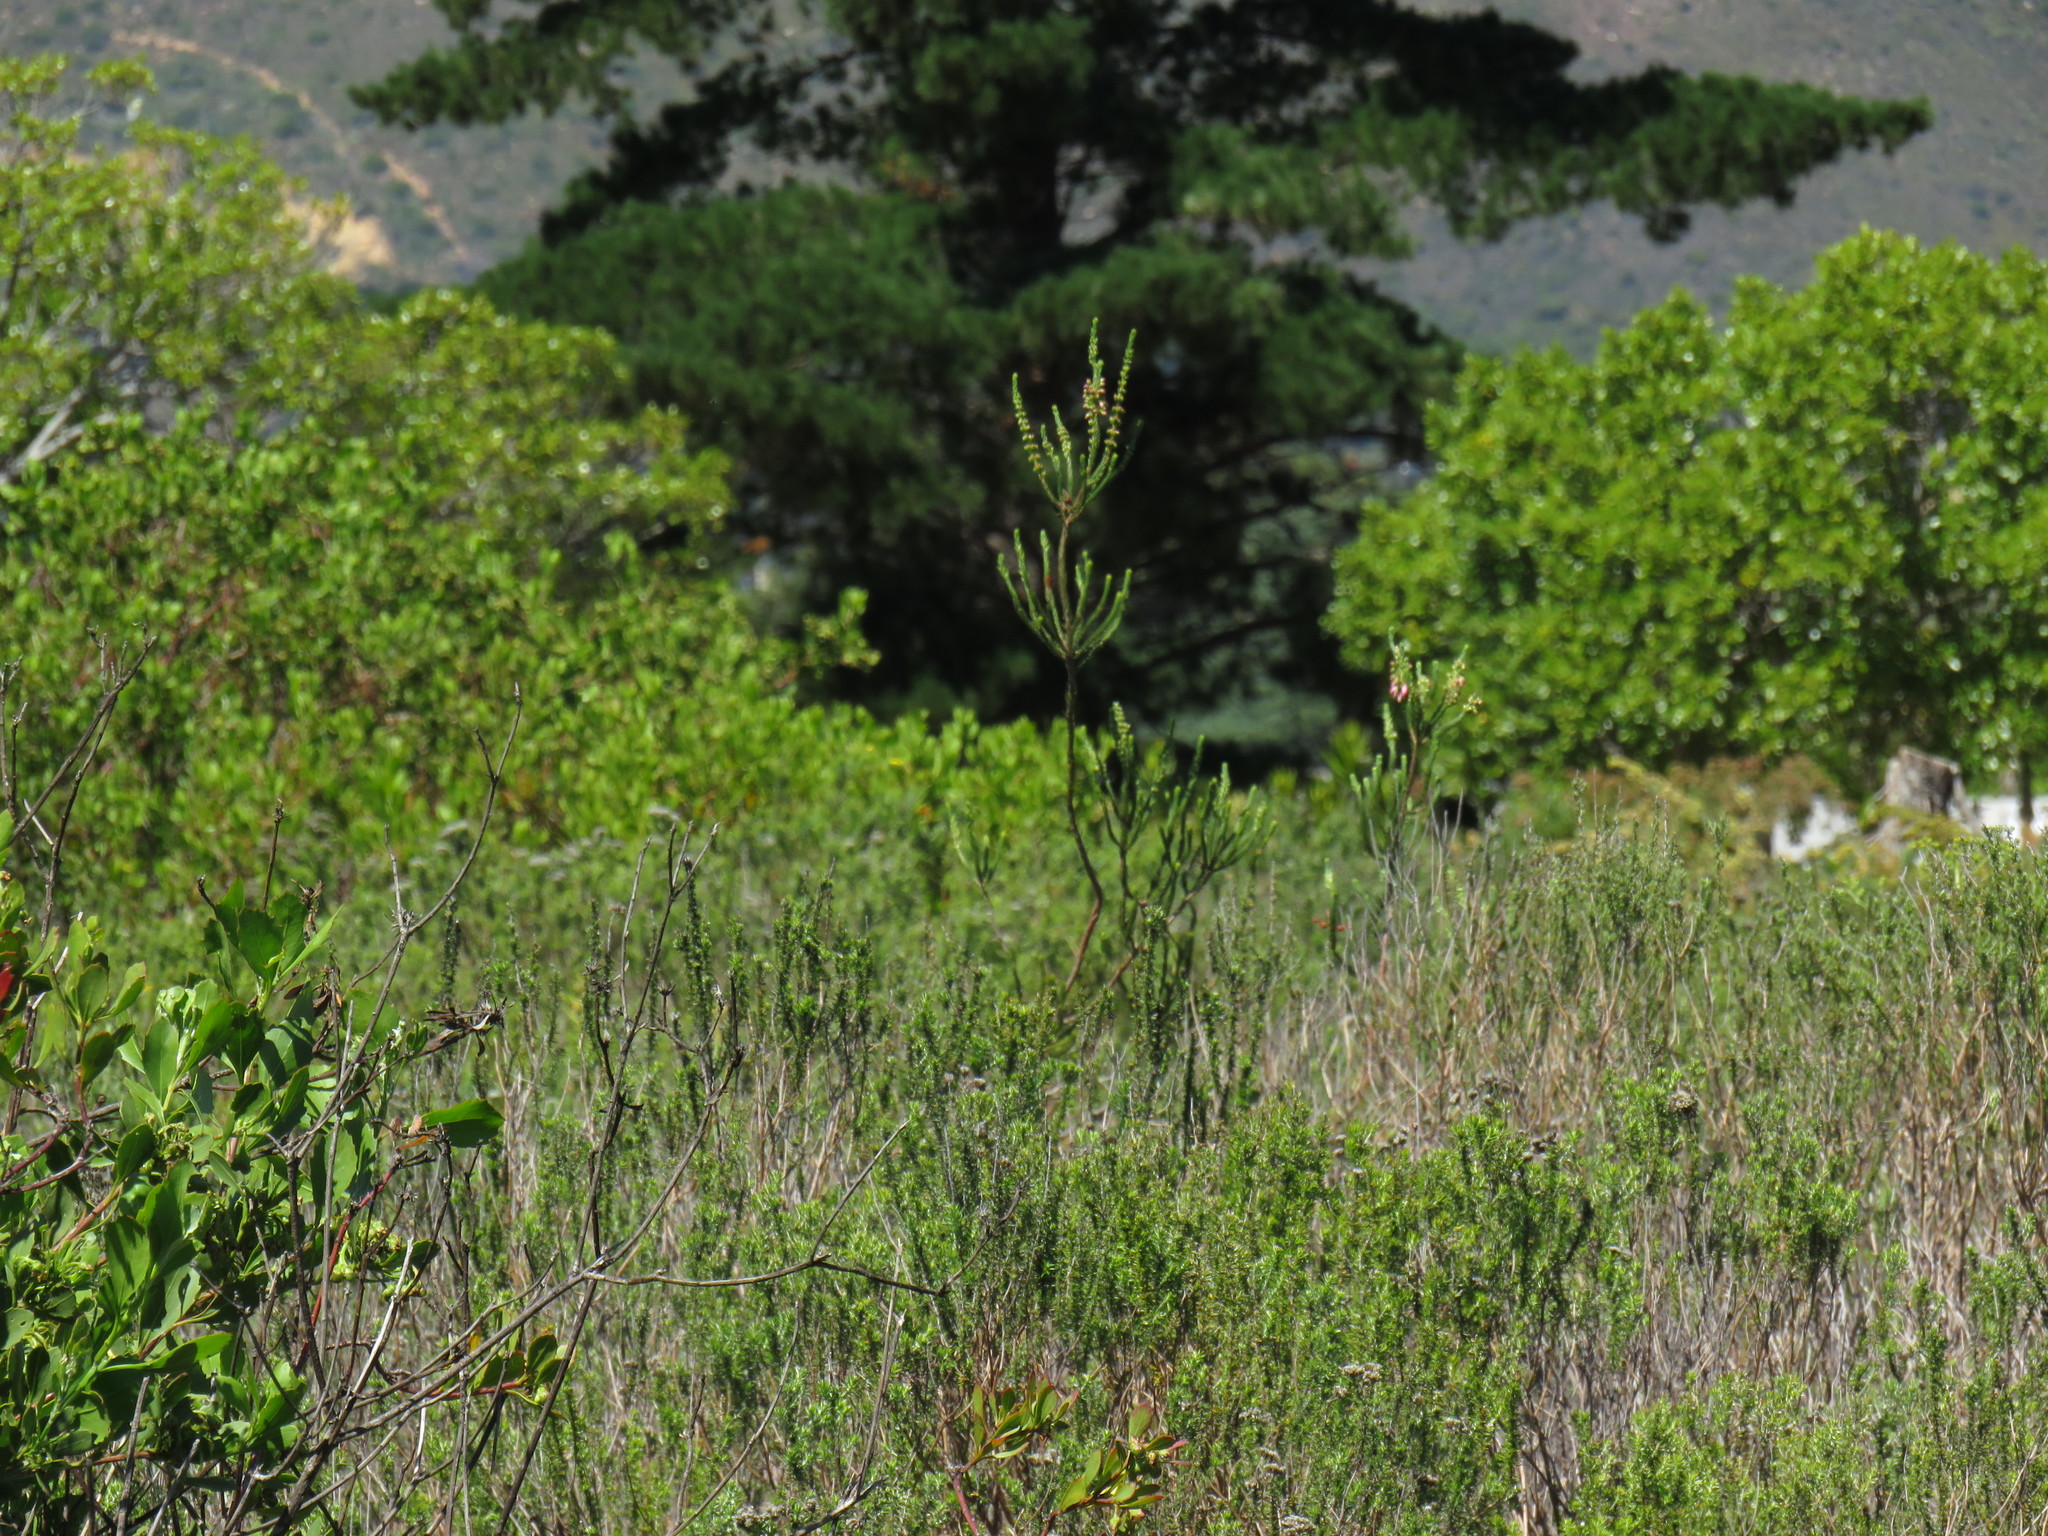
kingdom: Plantae
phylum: Tracheophyta
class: Magnoliopsida
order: Ericales
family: Ericaceae
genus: Erica
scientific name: Erica mammosa
